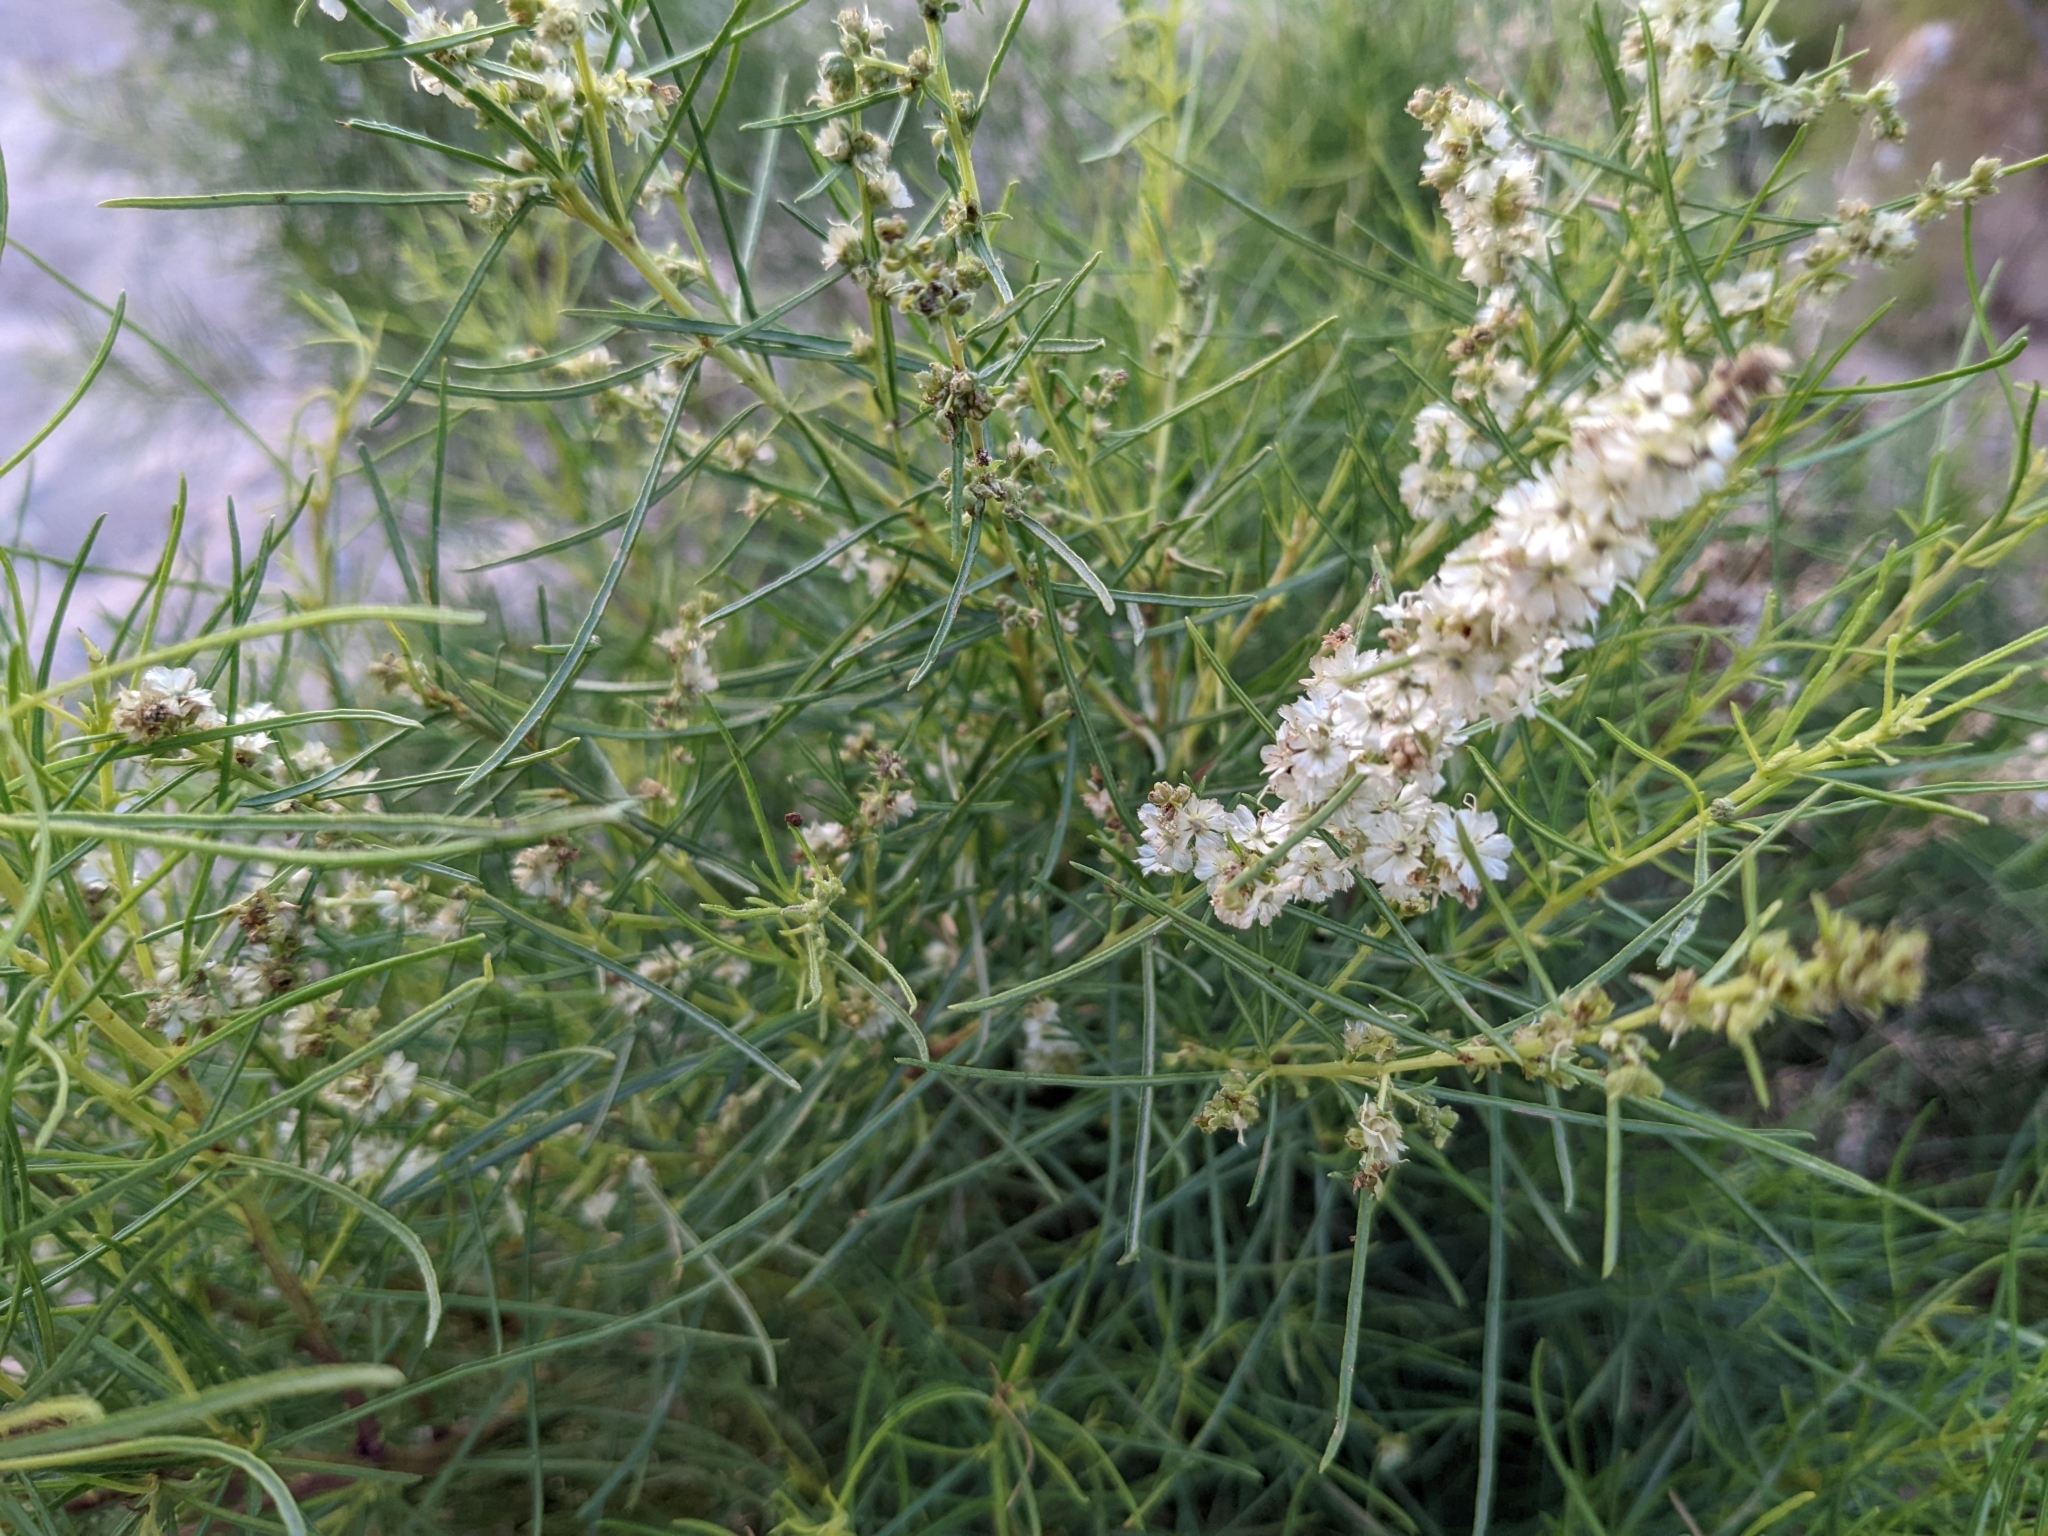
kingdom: Plantae
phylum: Tracheophyta
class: Magnoliopsida
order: Asterales
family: Asteraceae
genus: Ambrosia
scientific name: Ambrosia monogyra
